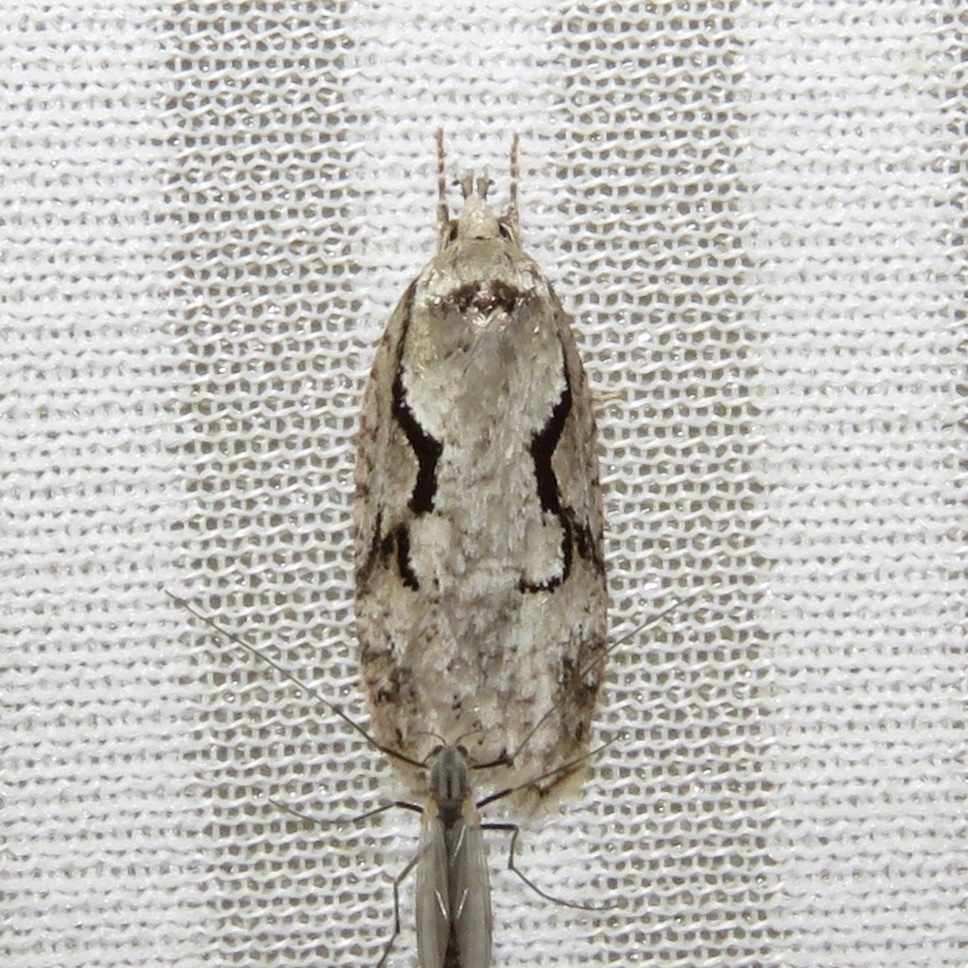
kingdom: Animalia
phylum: Arthropoda
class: Insecta
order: Lepidoptera
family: Depressariidae
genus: Semioscopis
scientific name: Semioscopis packardella
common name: Packard's concealer moth
